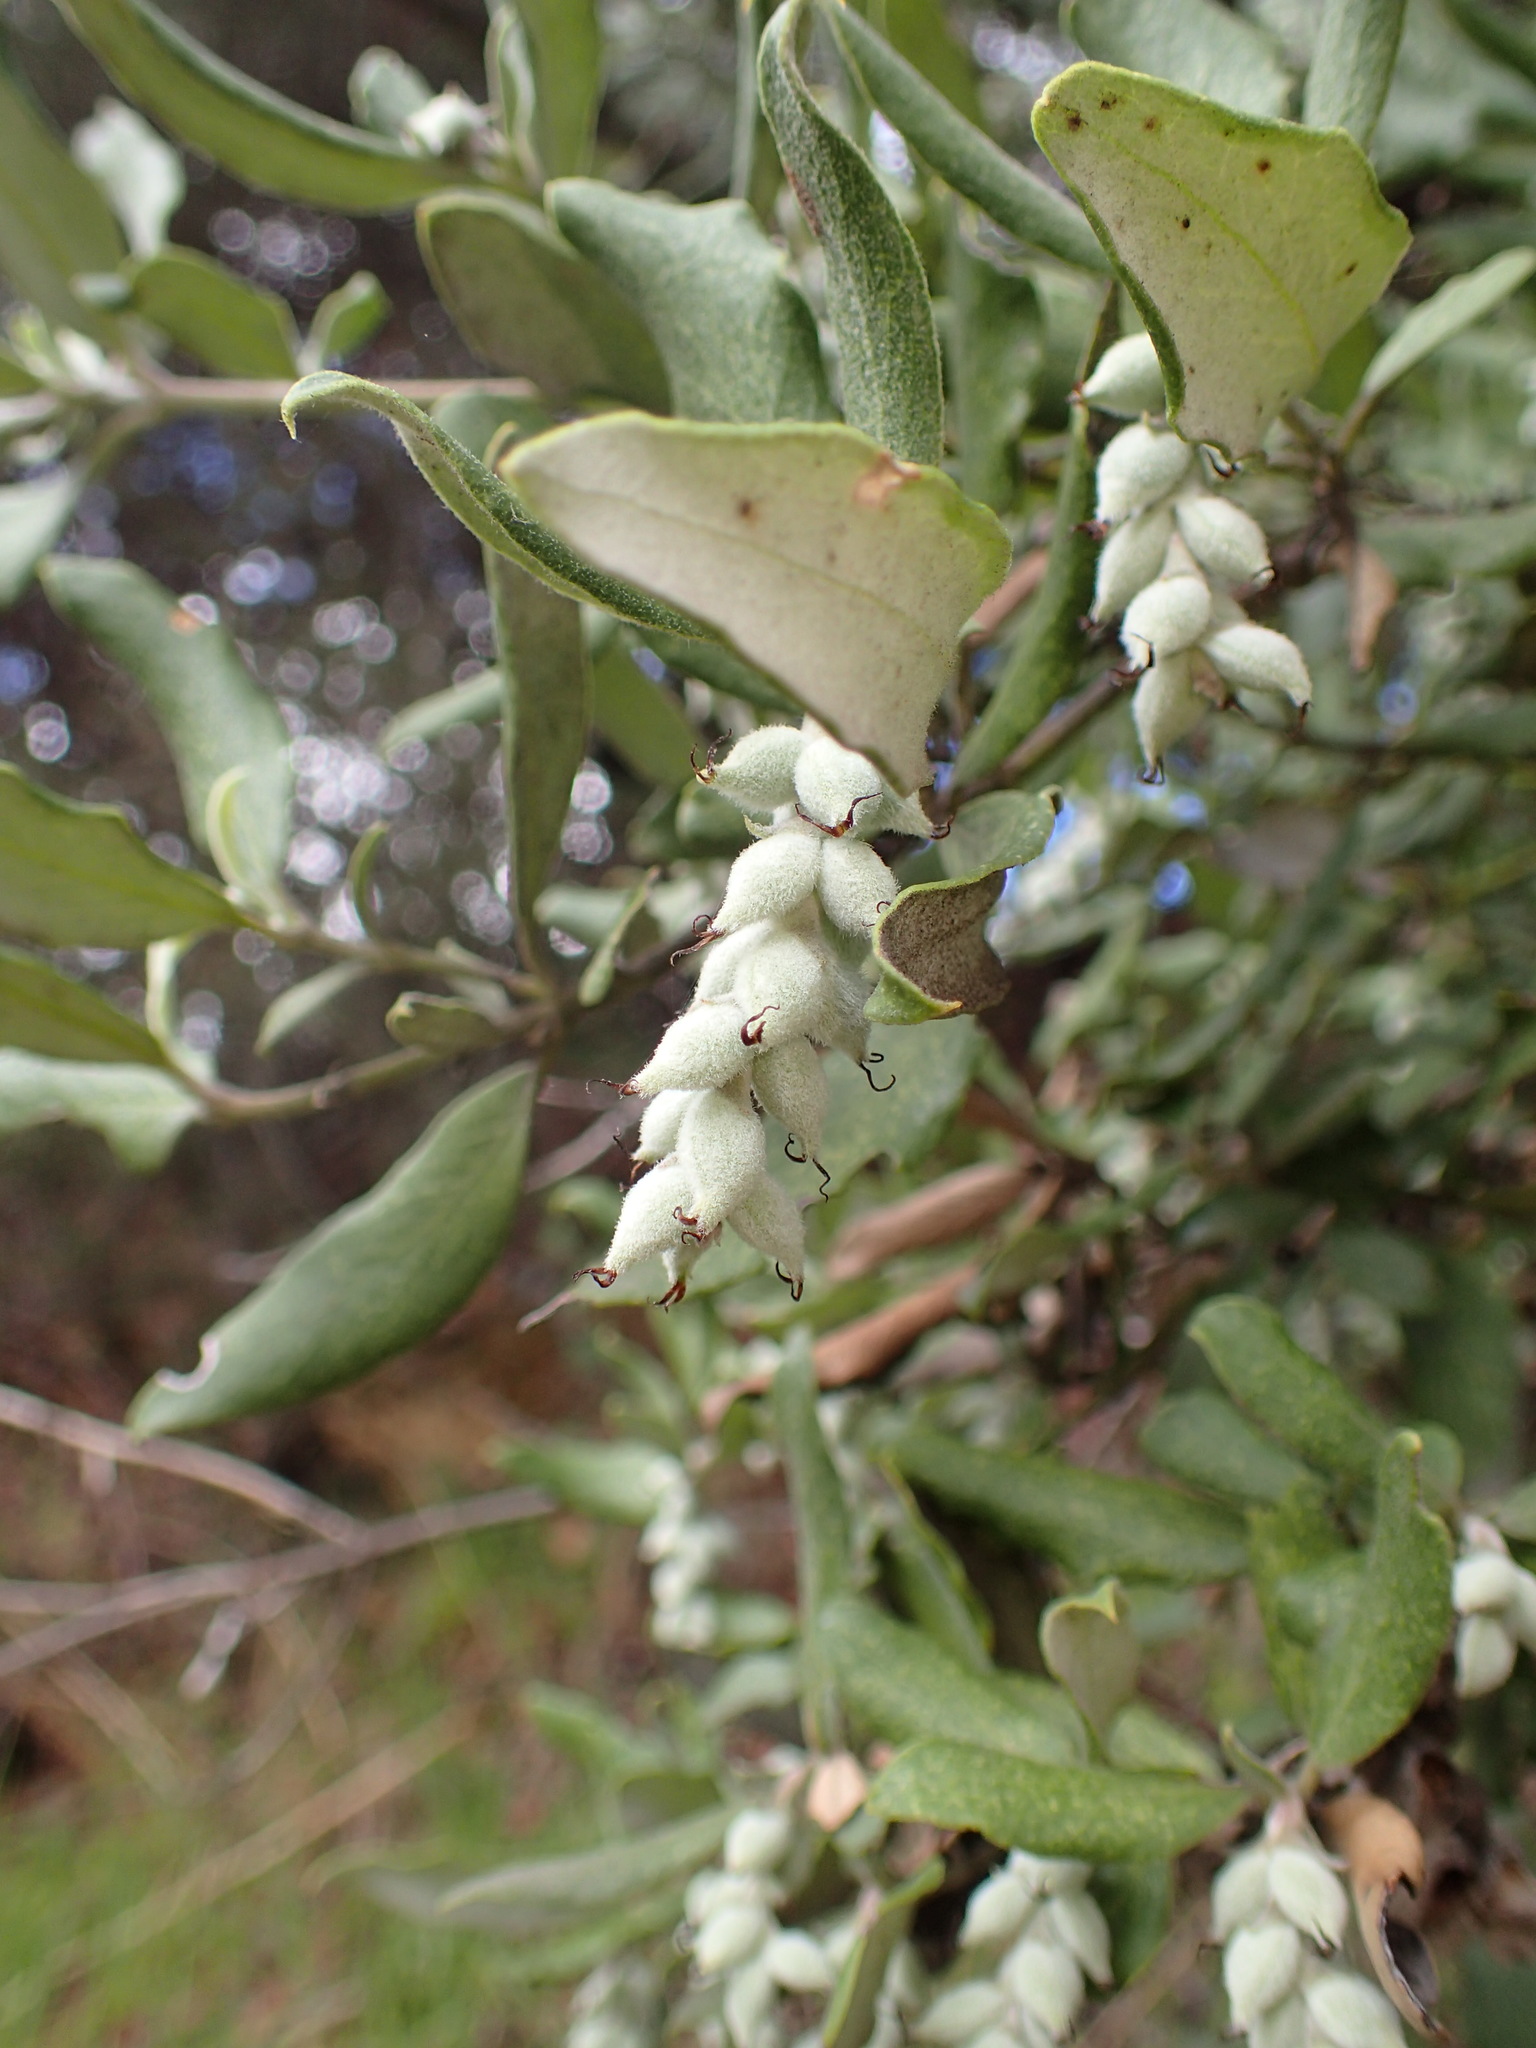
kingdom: Plantae
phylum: Tracheophyta
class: Magnoliopsida
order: Garryales
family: Garryaceae
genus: Garrya
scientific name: Garrya veatchii
